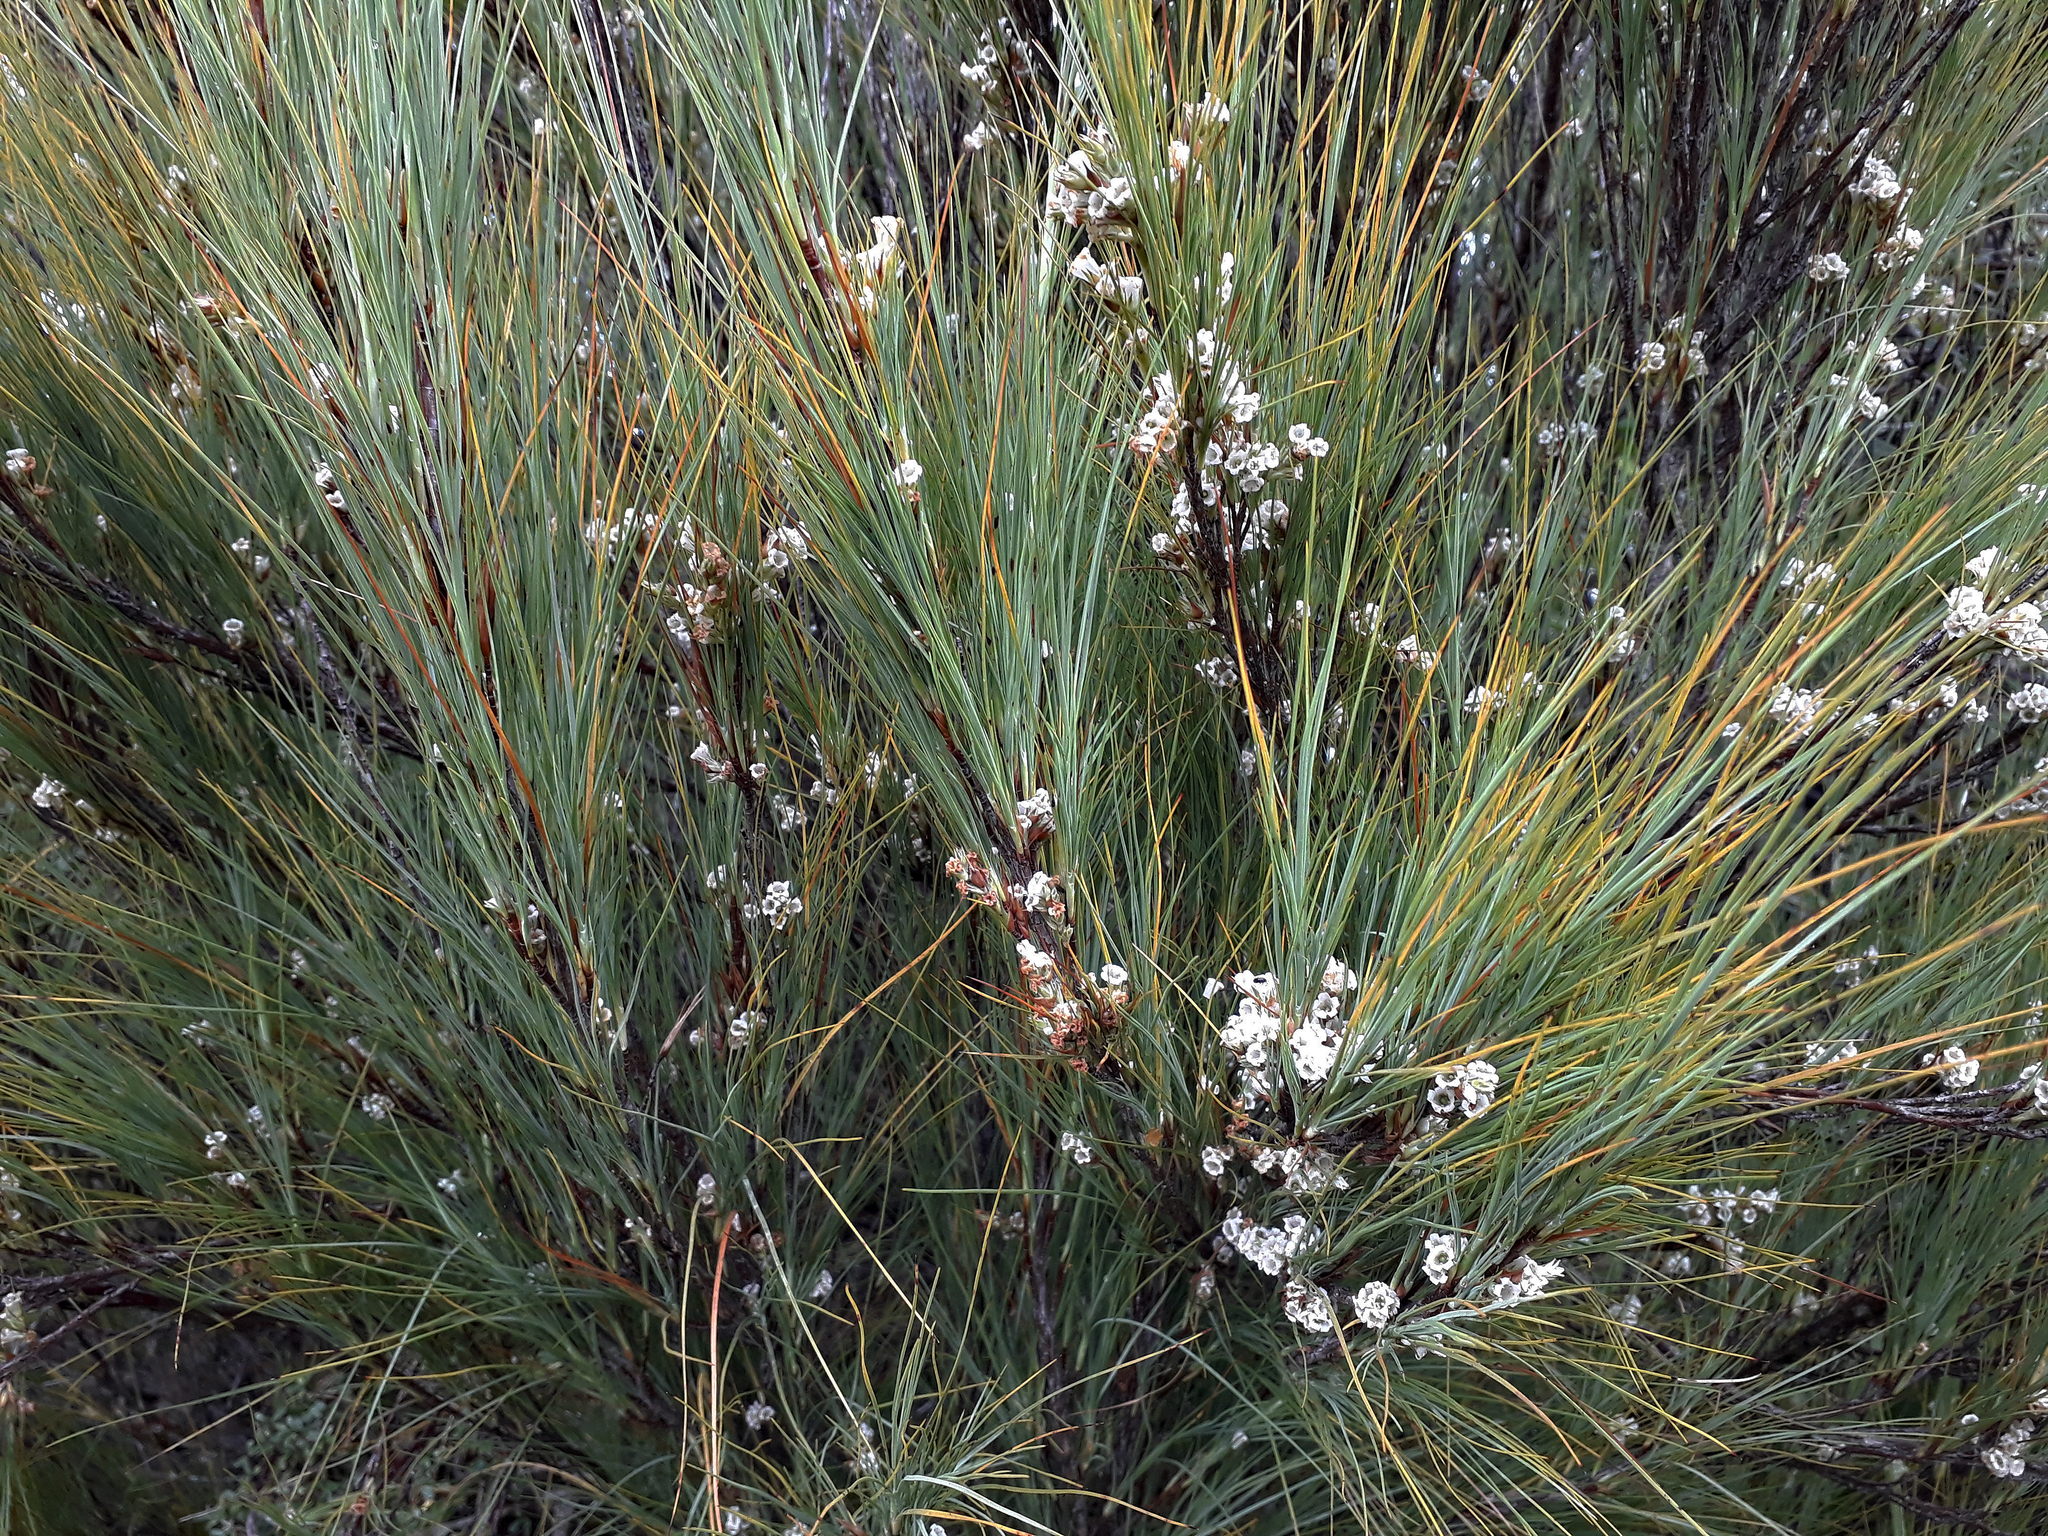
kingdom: Plantae
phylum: Tracheophyta
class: Magnoliopsida
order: Ericales
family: Ericaceae
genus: Dracophyllum
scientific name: Dracophyllum filifolium
